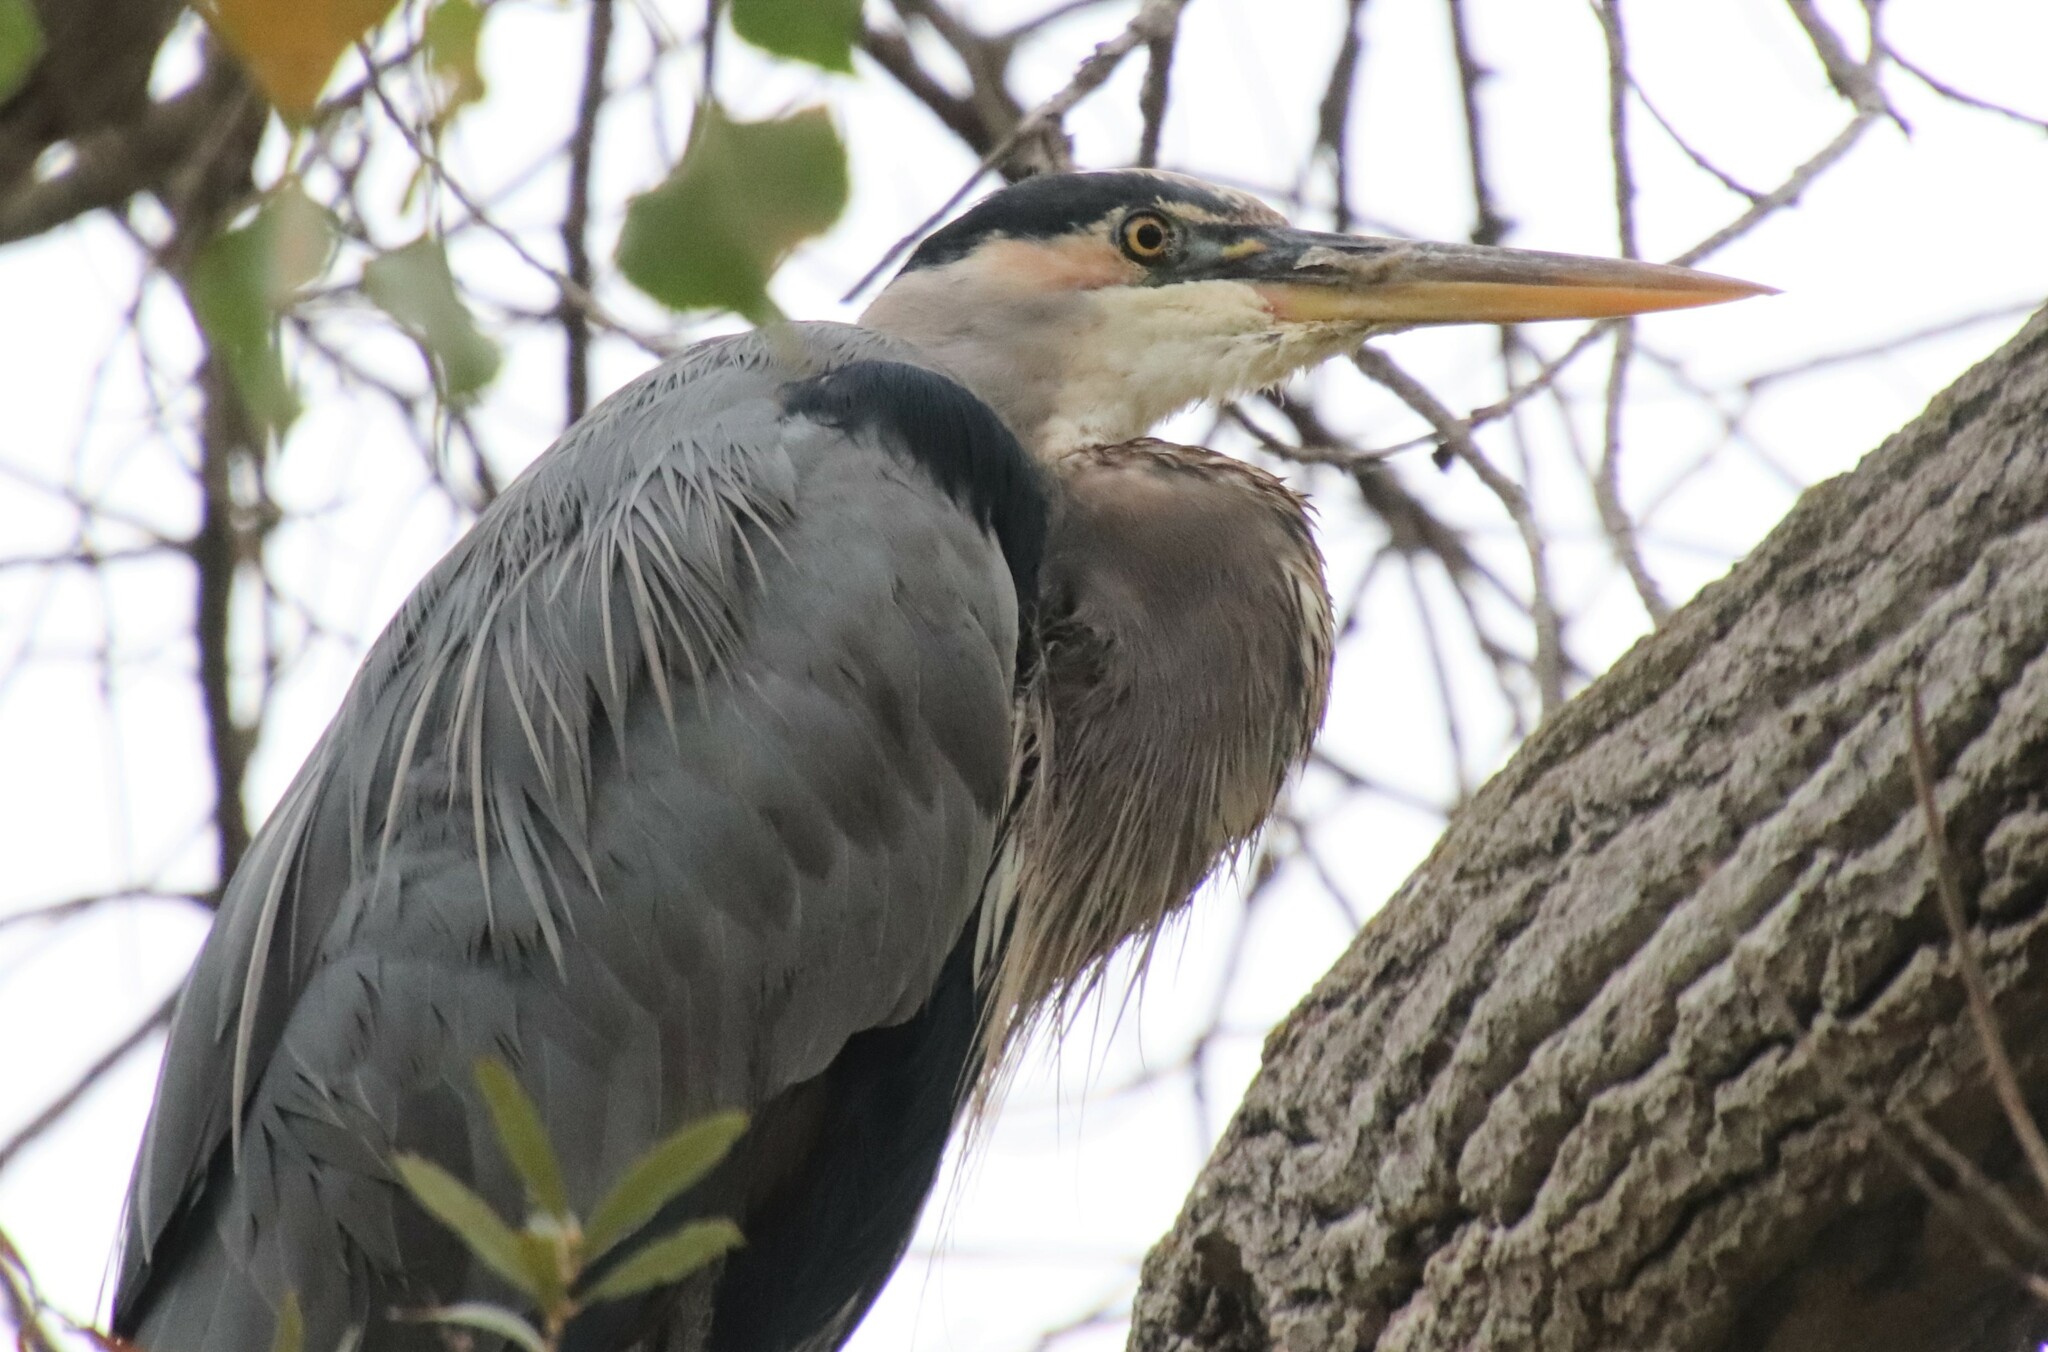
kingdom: Animalia
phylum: Chordata
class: Aves
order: Pelecaniformes
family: Ardeidae
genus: Ardea
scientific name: Ardea herodias
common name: Great blue heron
